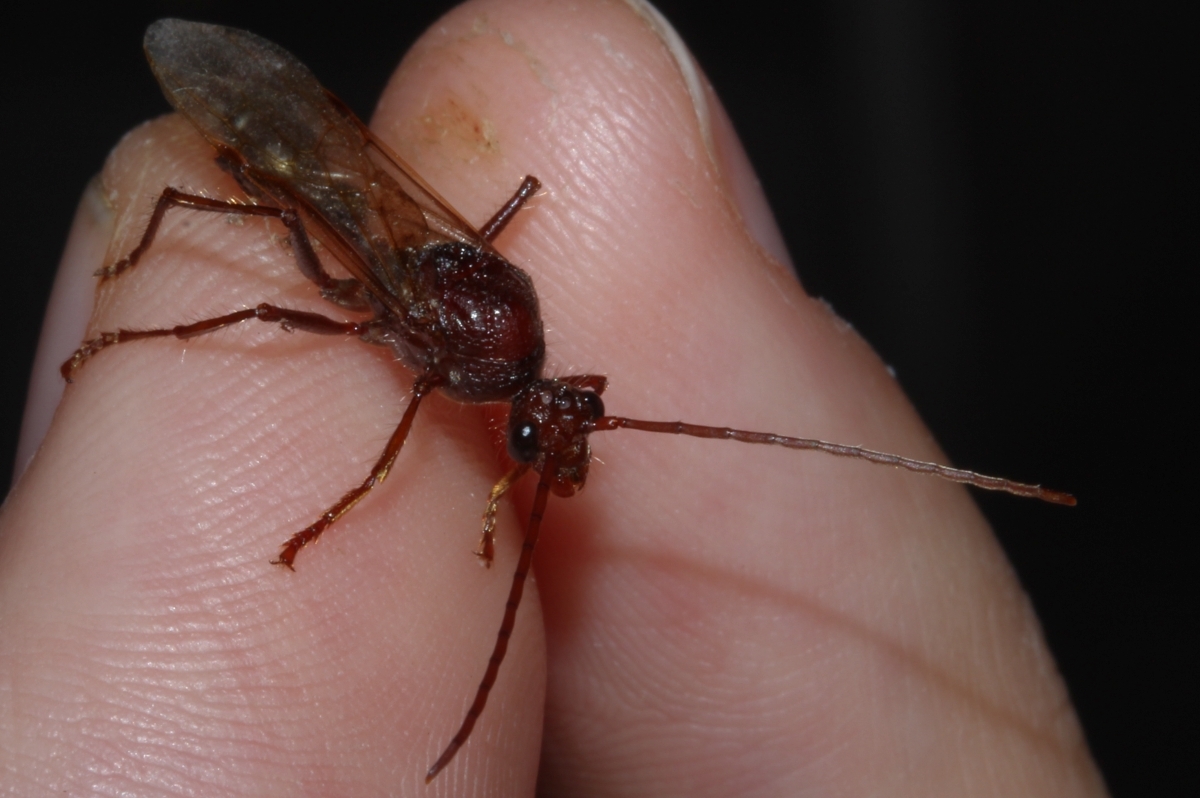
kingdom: Animalia
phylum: Arthropoda
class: Insecta
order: Hymenoptera
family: Formicidae
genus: Paraponera
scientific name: Paraponera clavata
